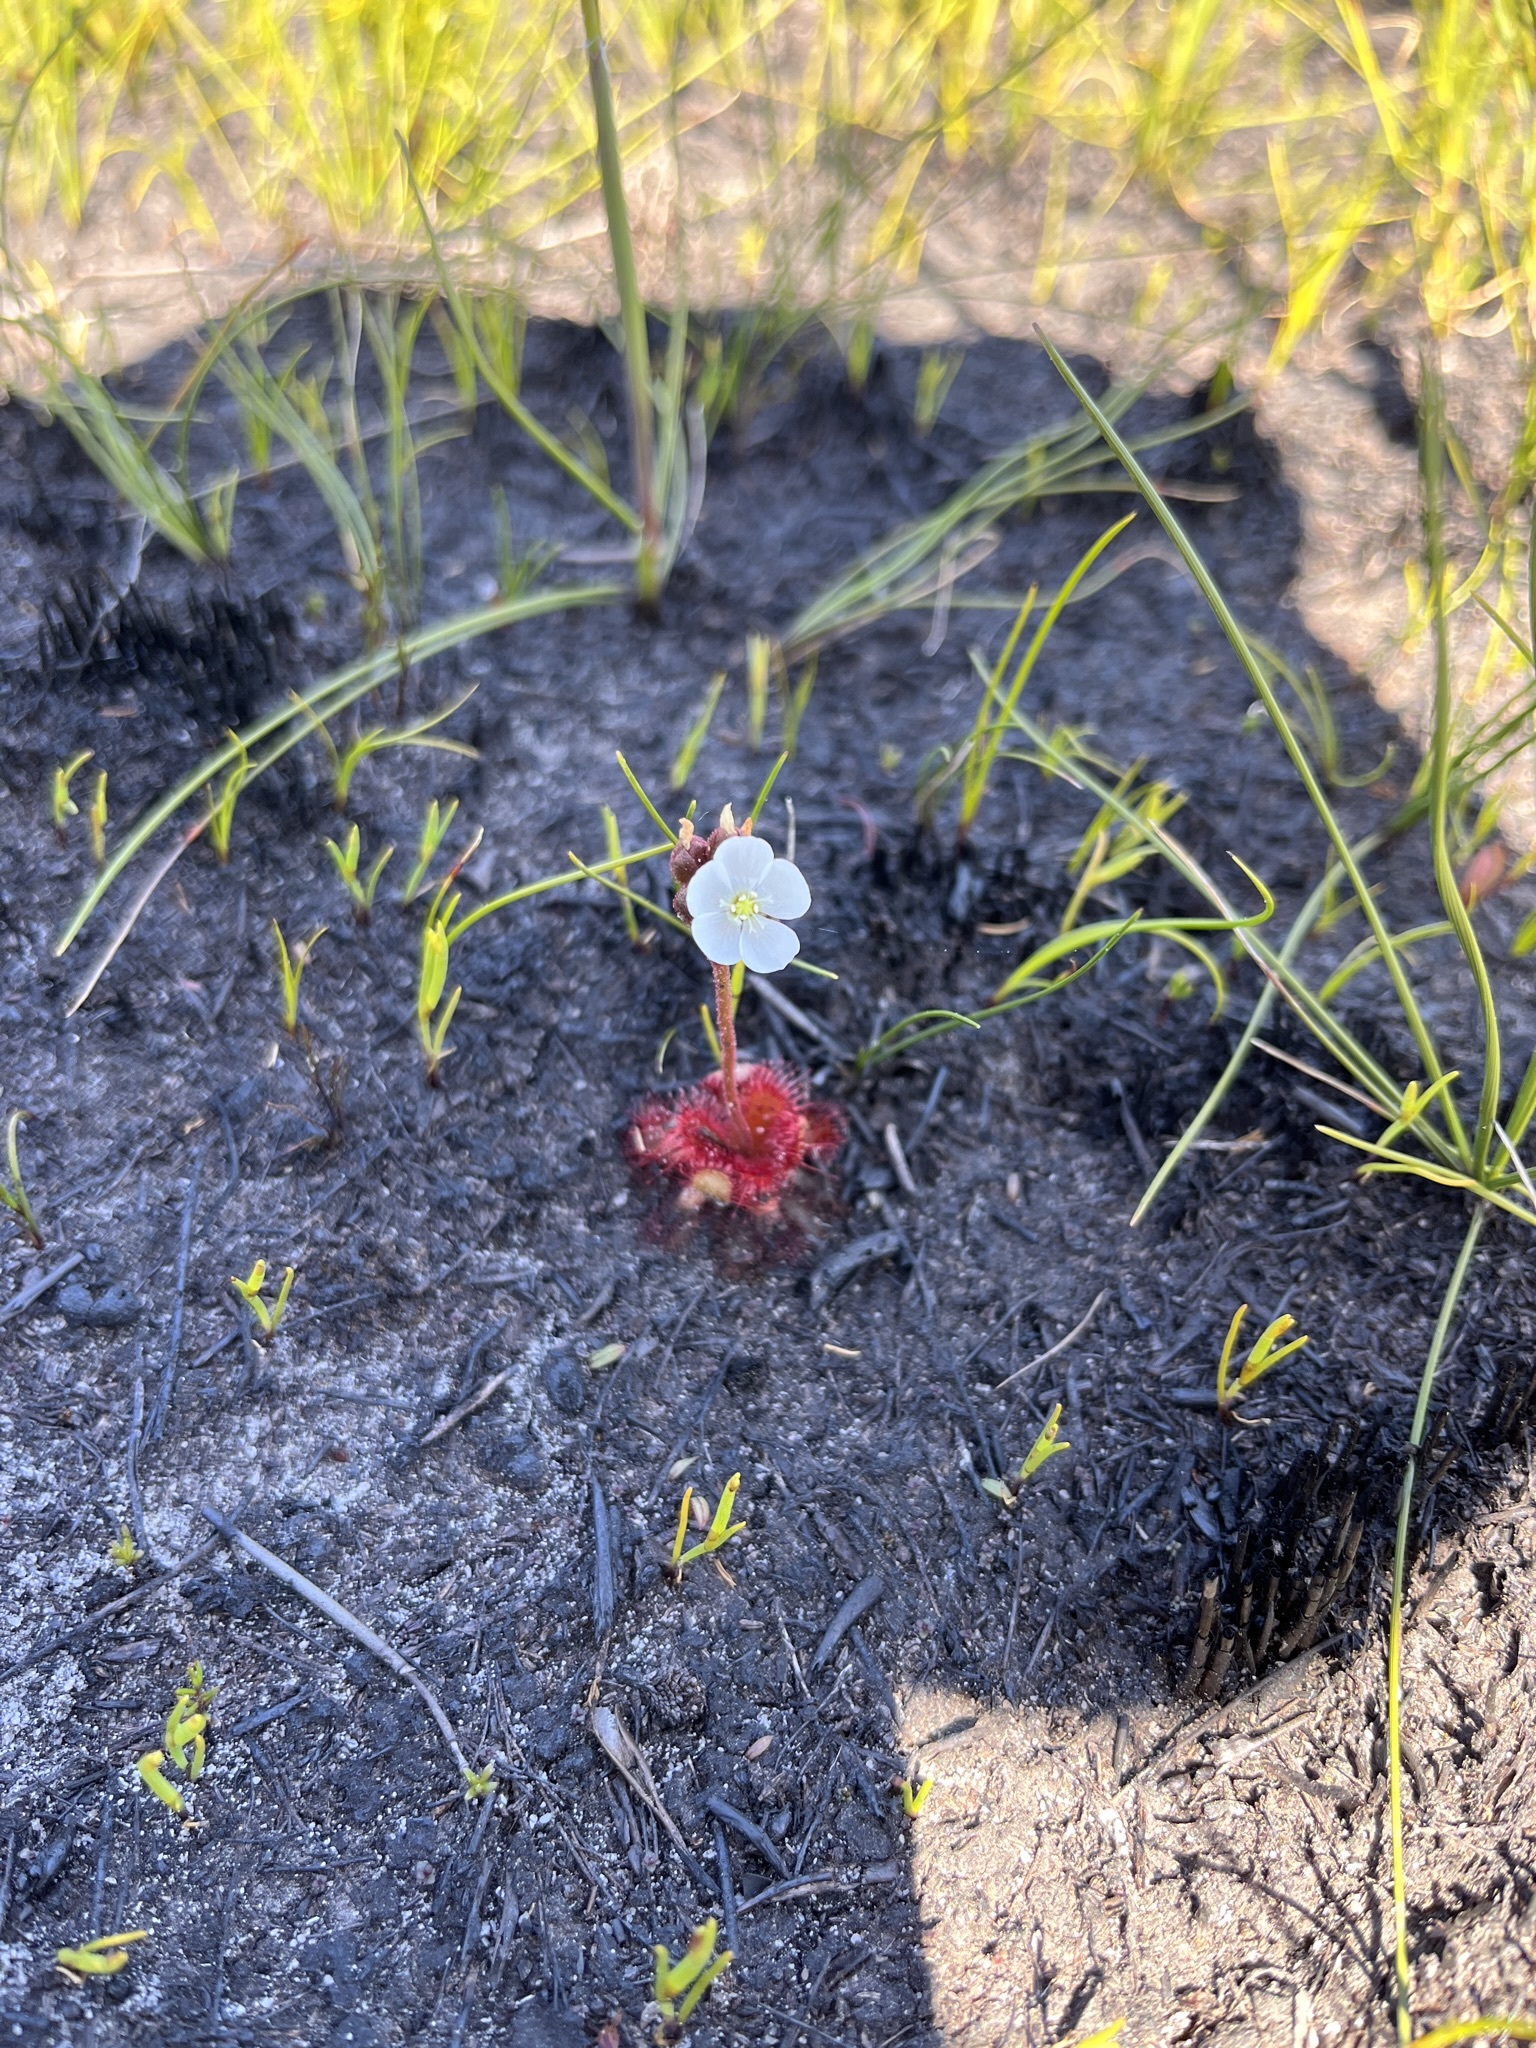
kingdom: Plantae
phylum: Tracheophyta
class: Magnoliopsida
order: Caryophyllales
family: Droseraceae
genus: Drosera
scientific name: Drosera trinervia
